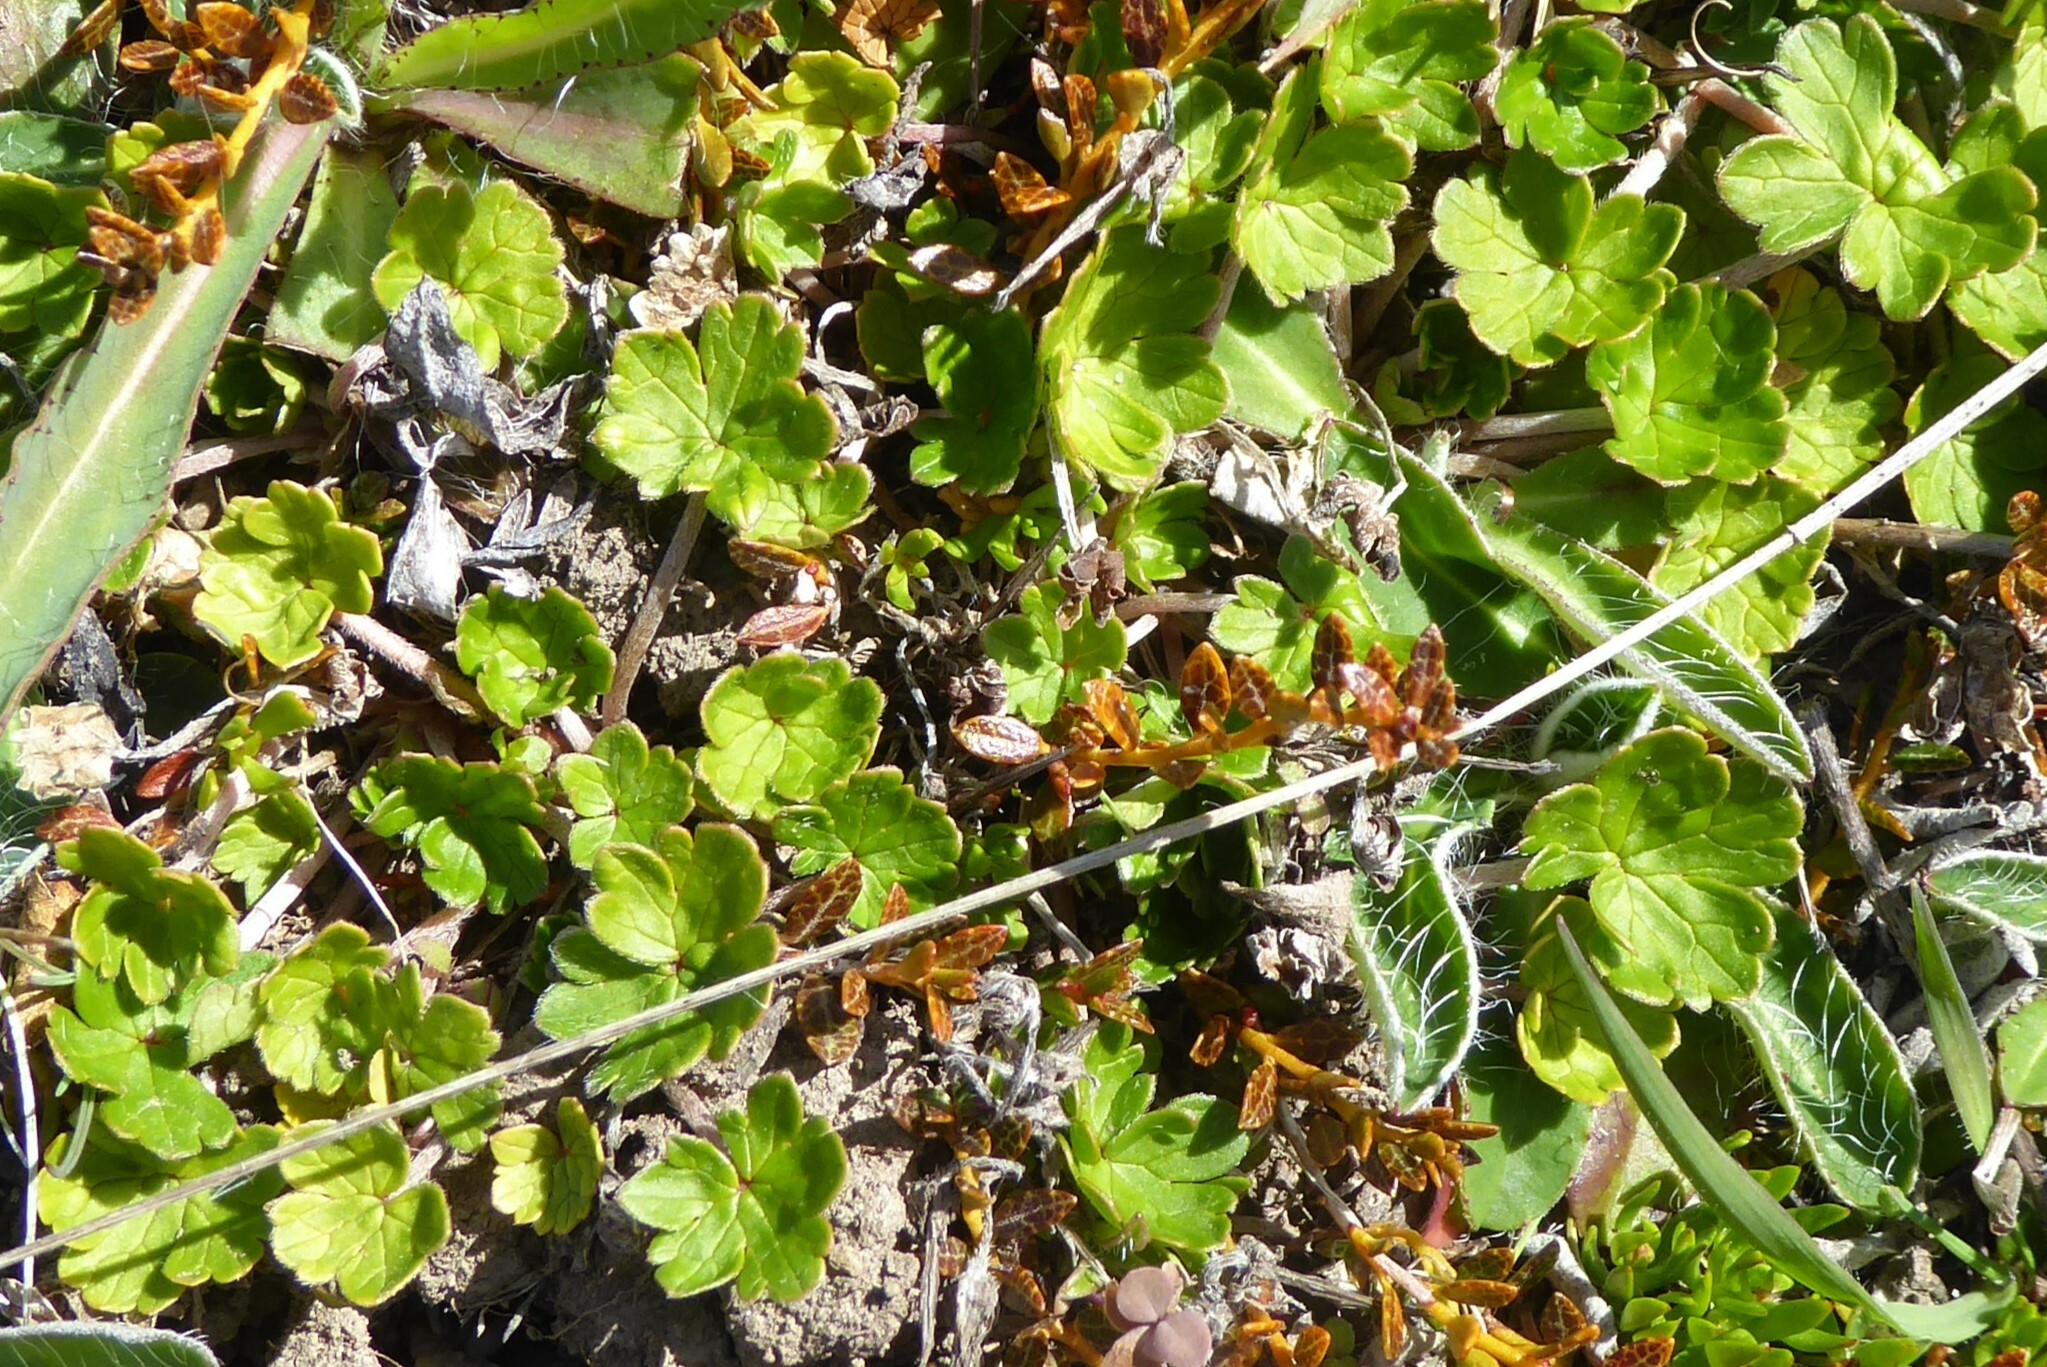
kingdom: Plantae
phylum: Tracheophyta
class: Magnoliopsida
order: Geraniales
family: Geraniaceae
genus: Geranium
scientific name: Geranium brevicaule
